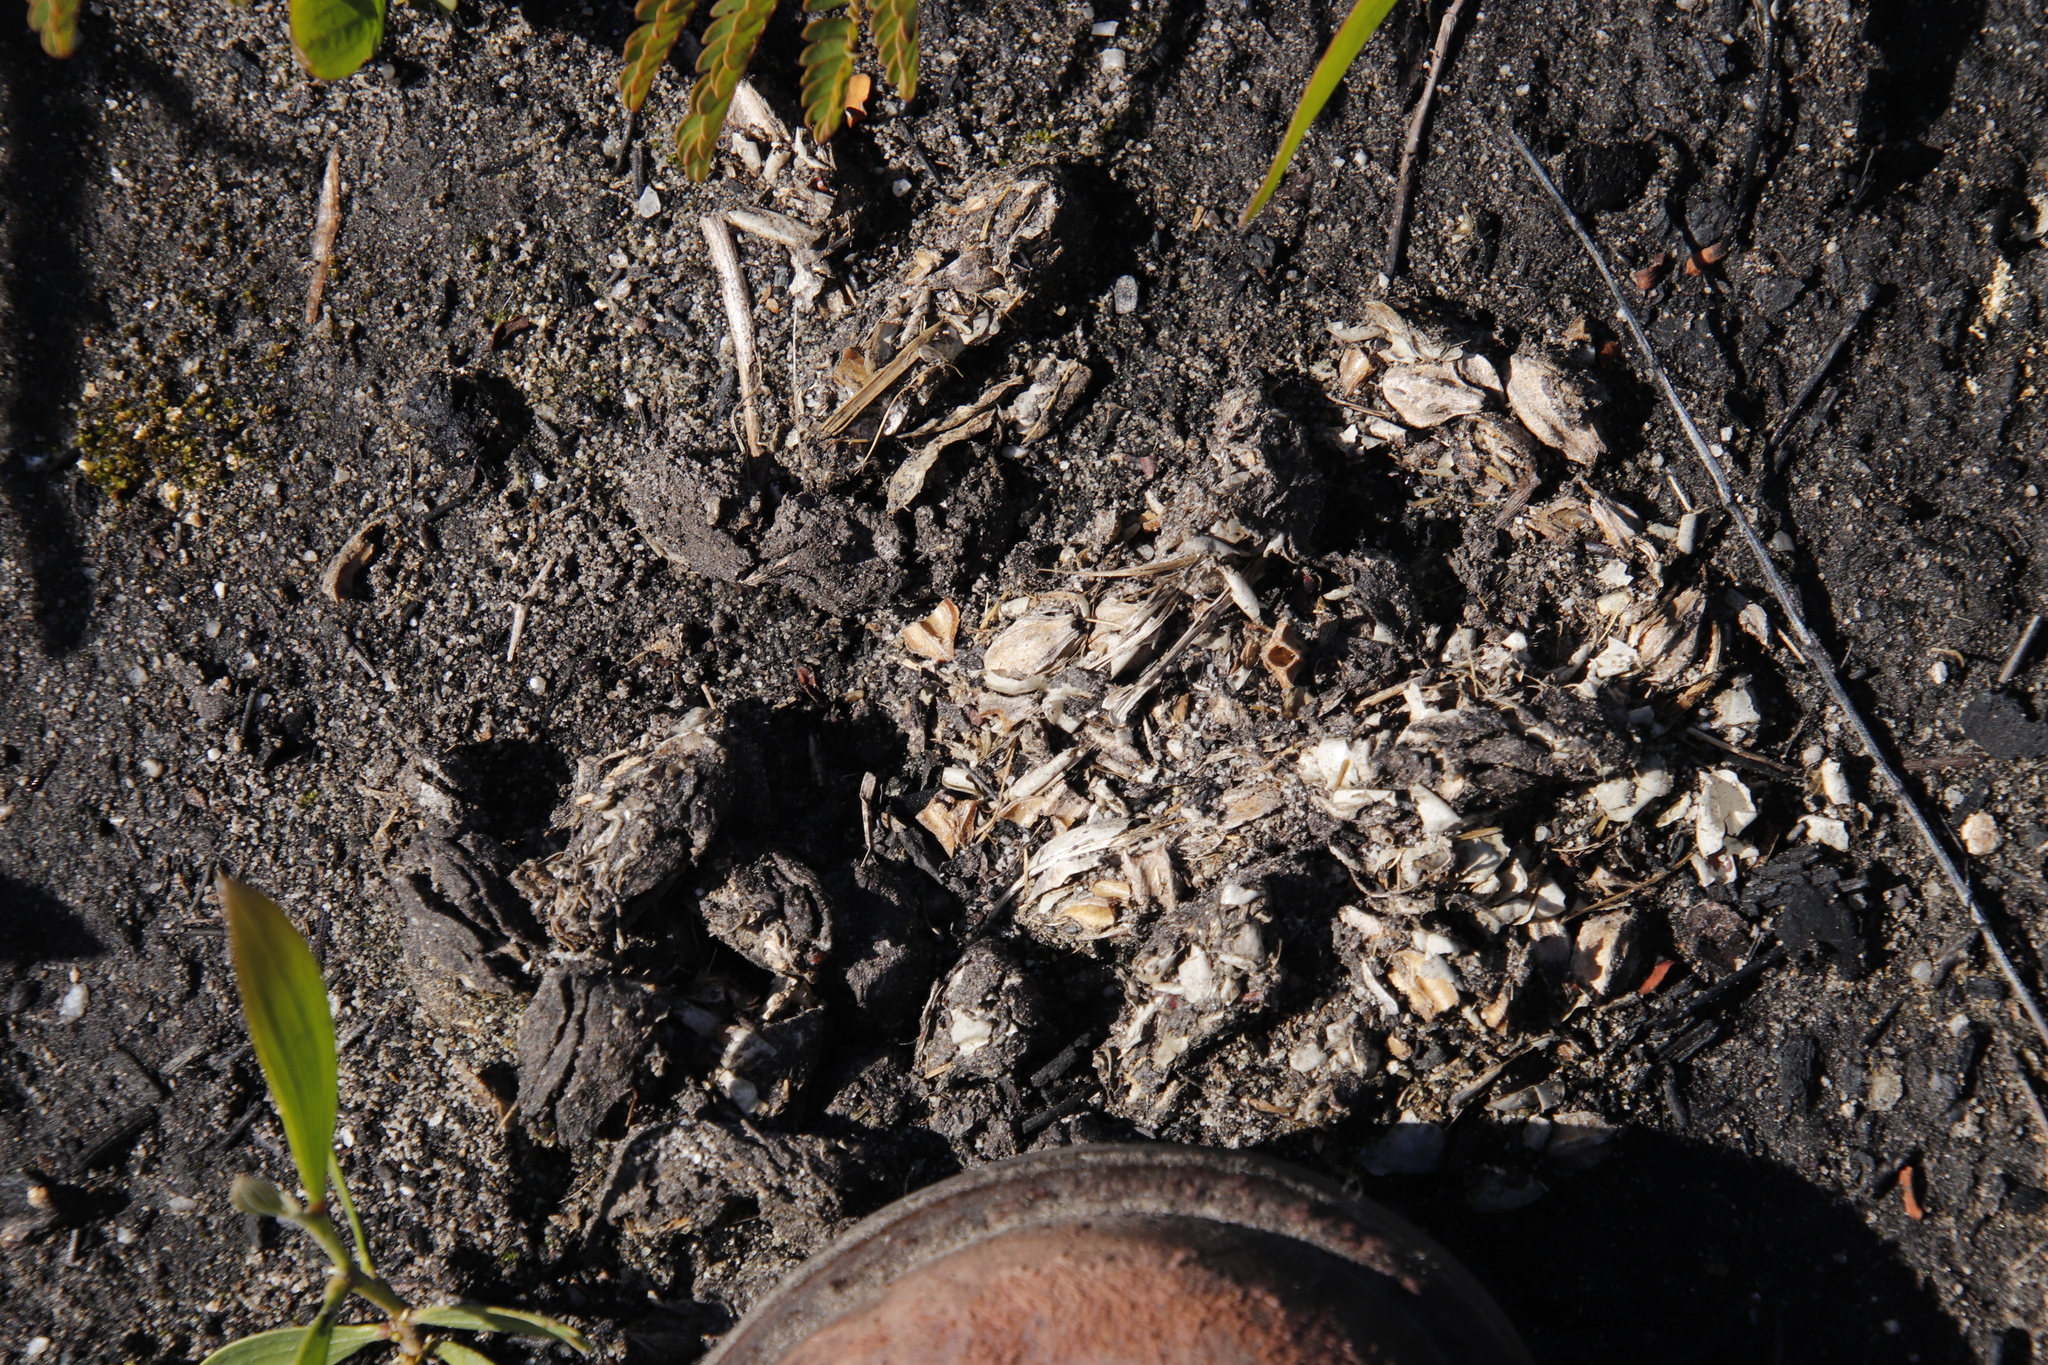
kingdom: Animalia
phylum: Chordata
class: Mammalia
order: Rodentia
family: Hystricidae
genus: Hystrix
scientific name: Hystrix africaeaustralis
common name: Cape porcupine
